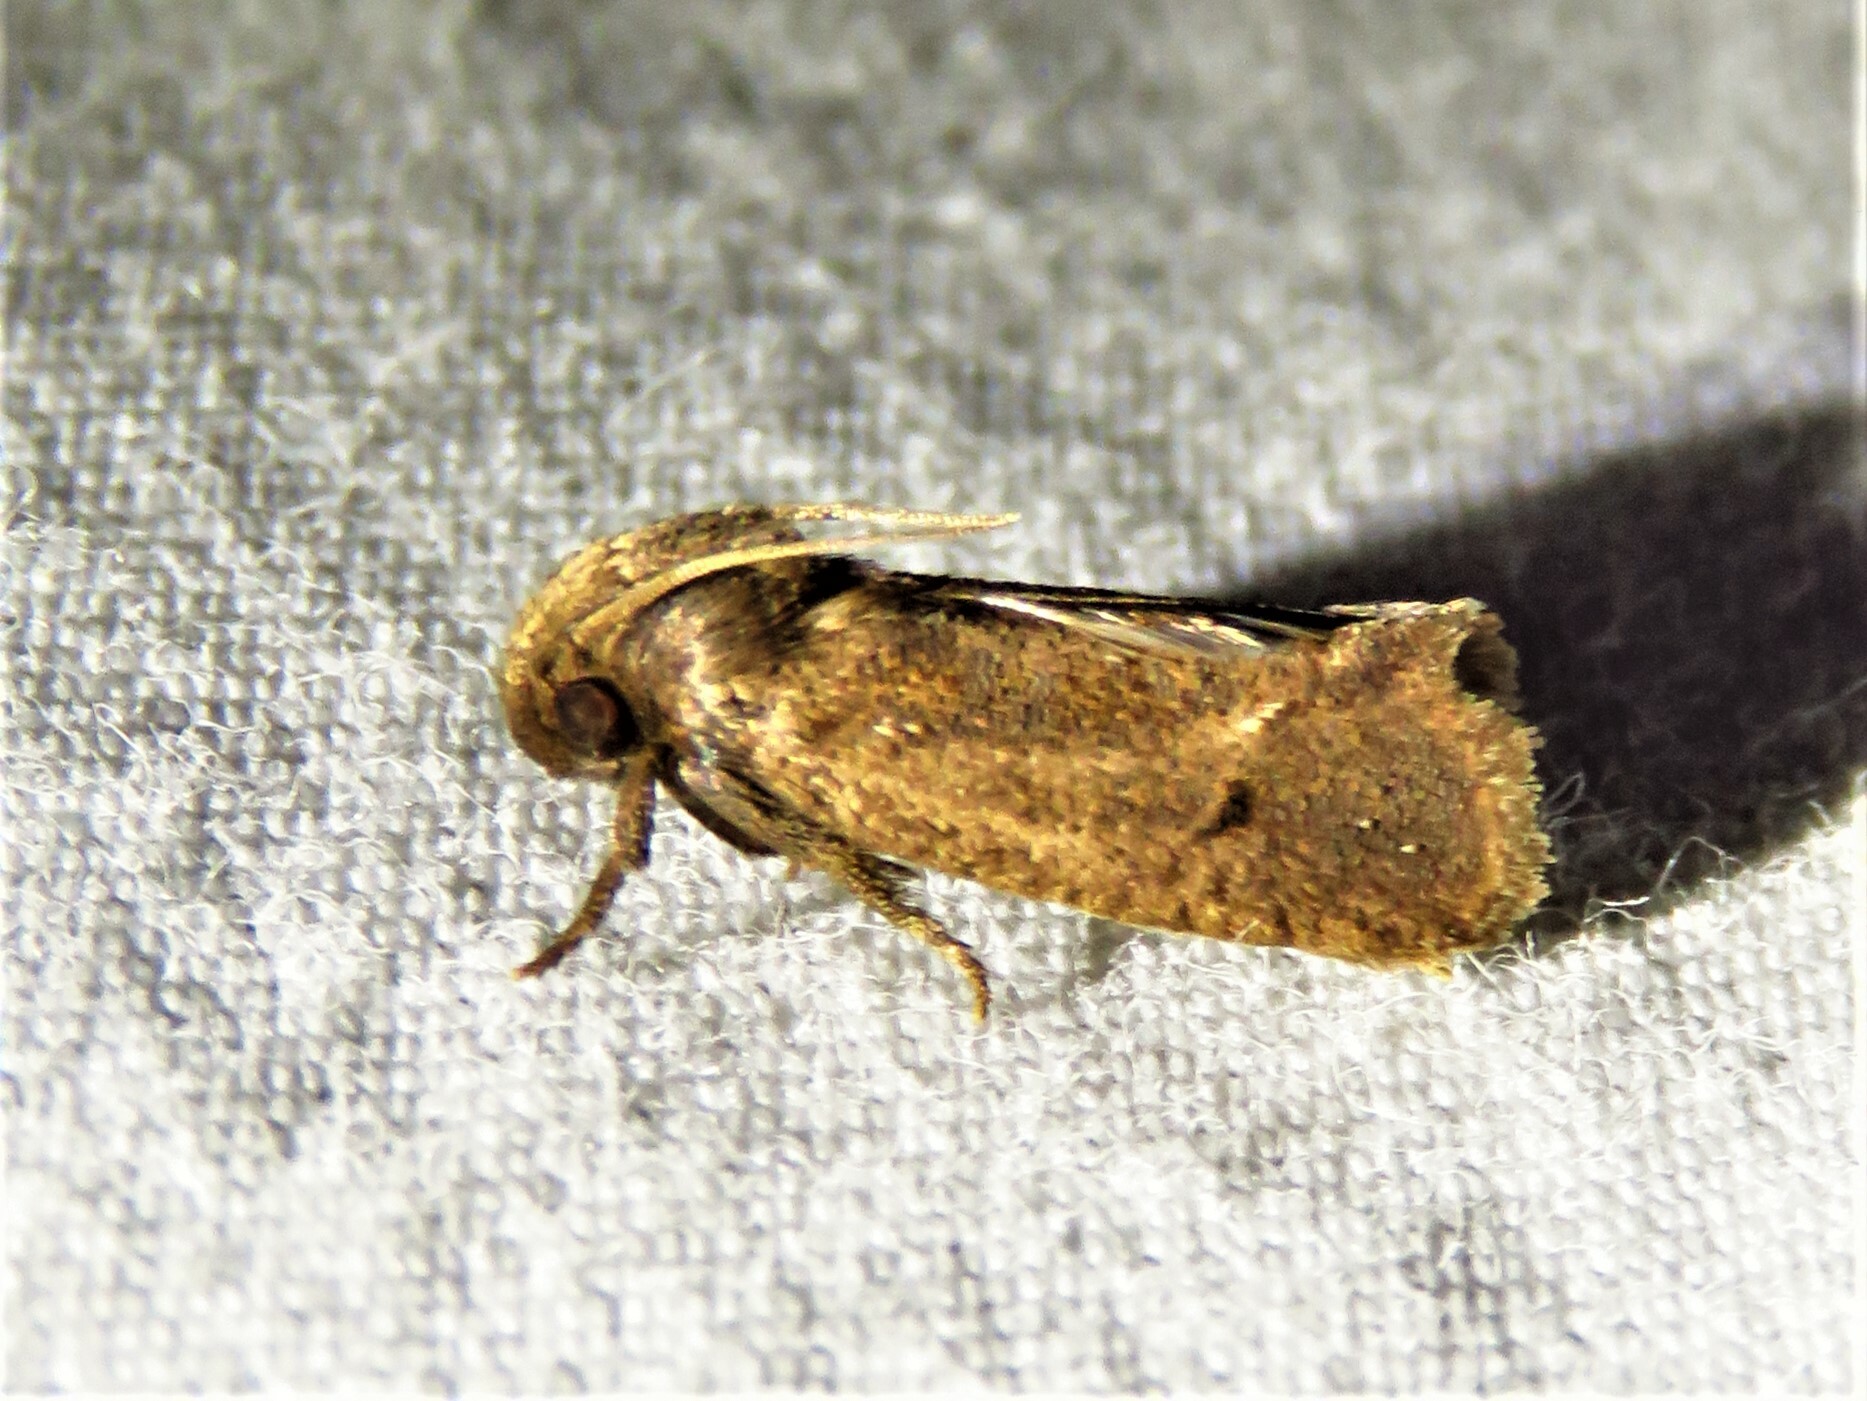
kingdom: Animalia
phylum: Arthropoda
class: Insecta
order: Lepidoptera
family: Tineidae
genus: Acrolophus
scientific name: Acrolophus texanella
